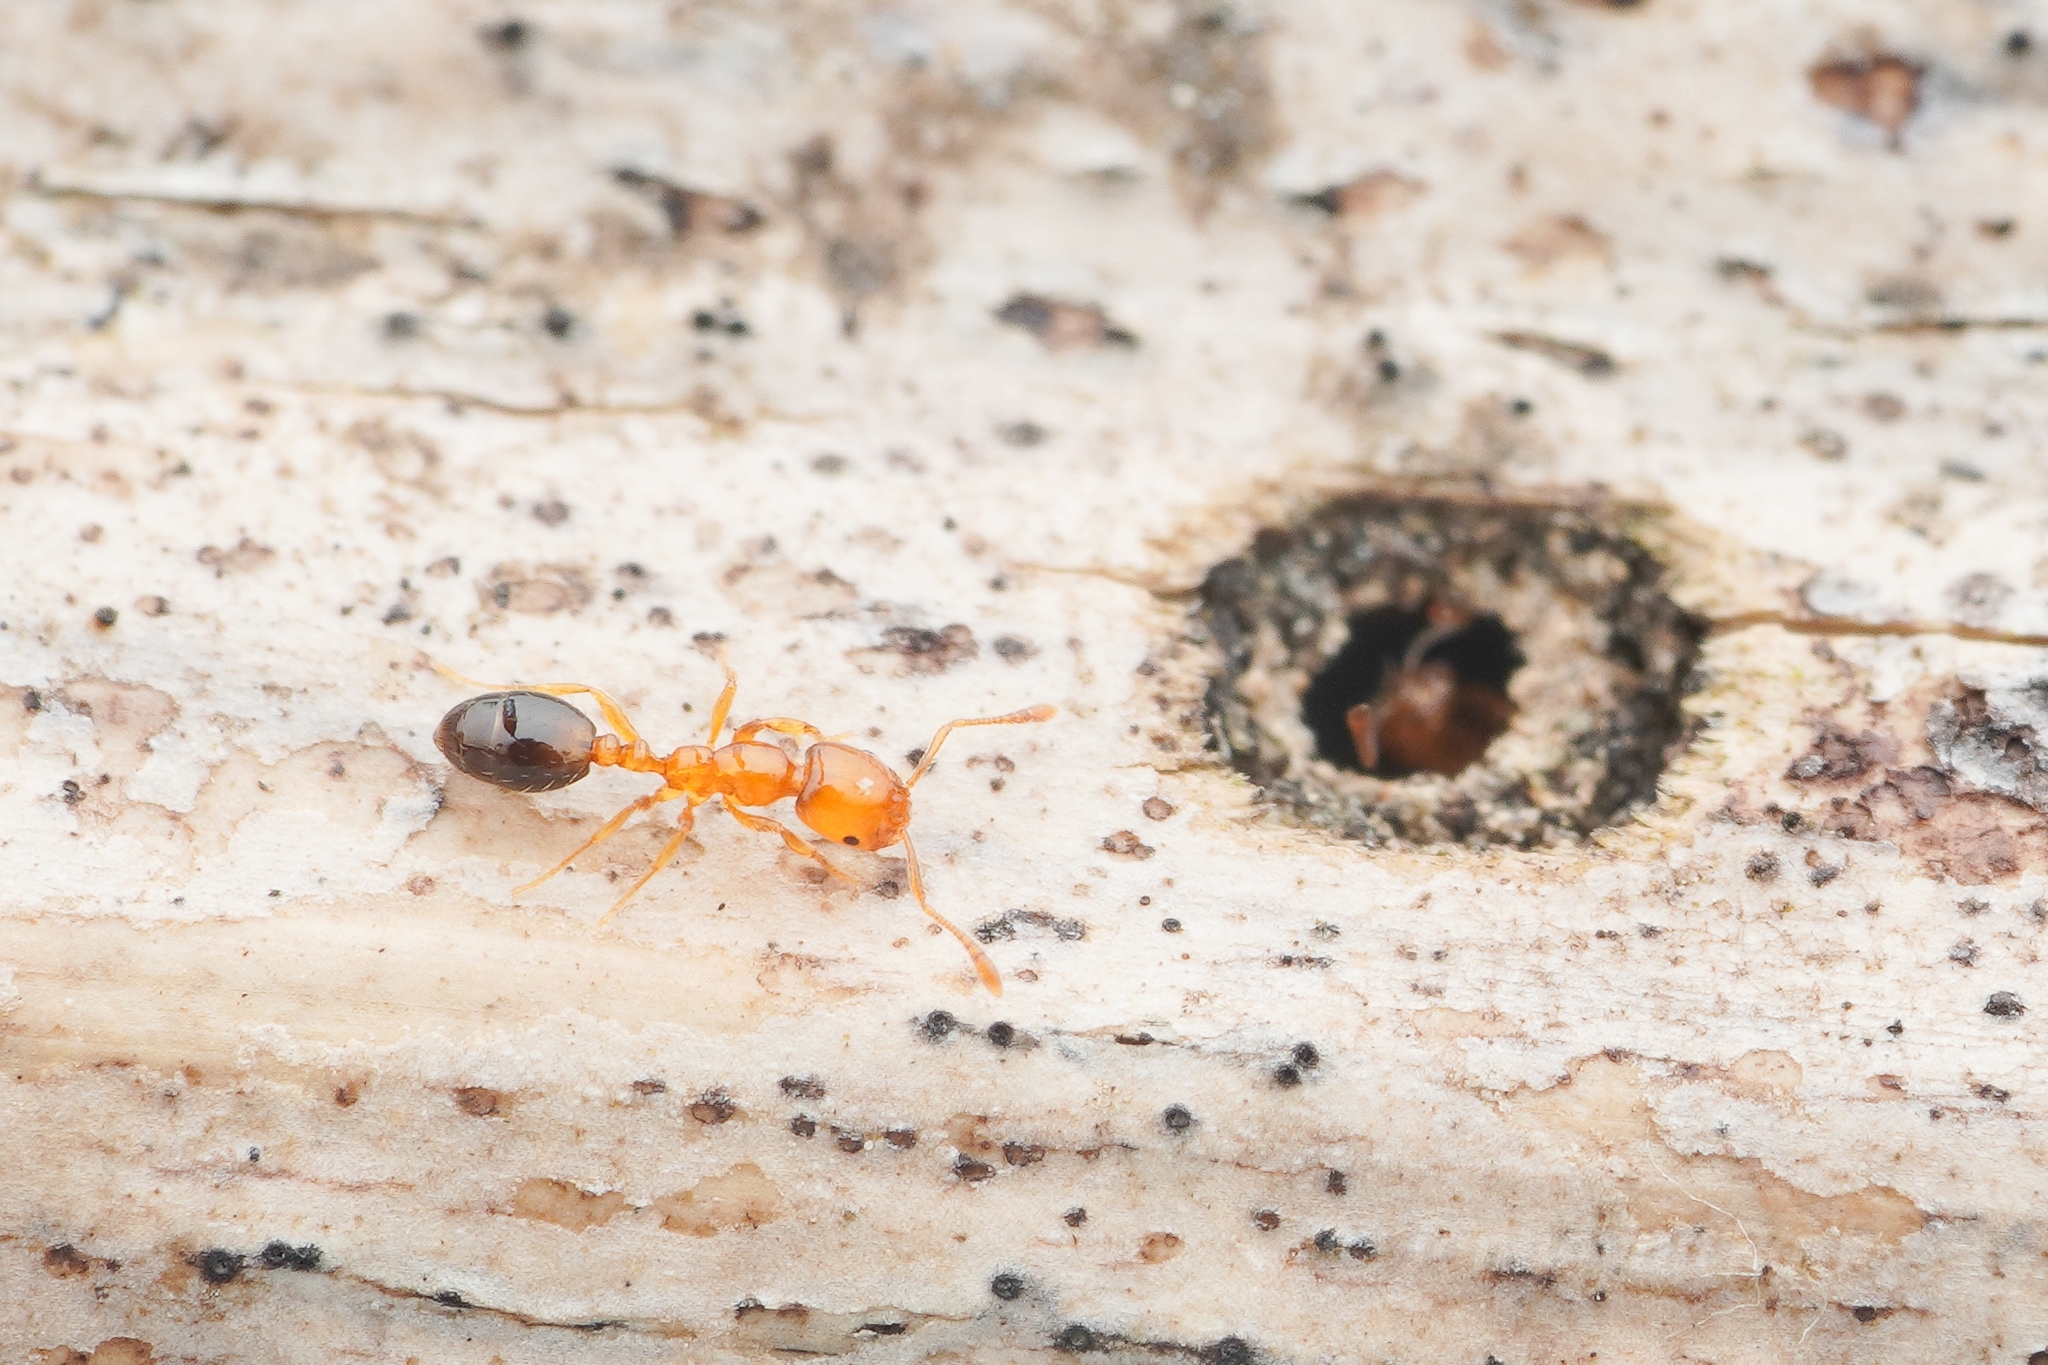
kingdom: Animalia
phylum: Arthropoda
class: Insecta
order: Hymenoptera
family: Formicidae
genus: Monomorium
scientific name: Monomorium intrudens
